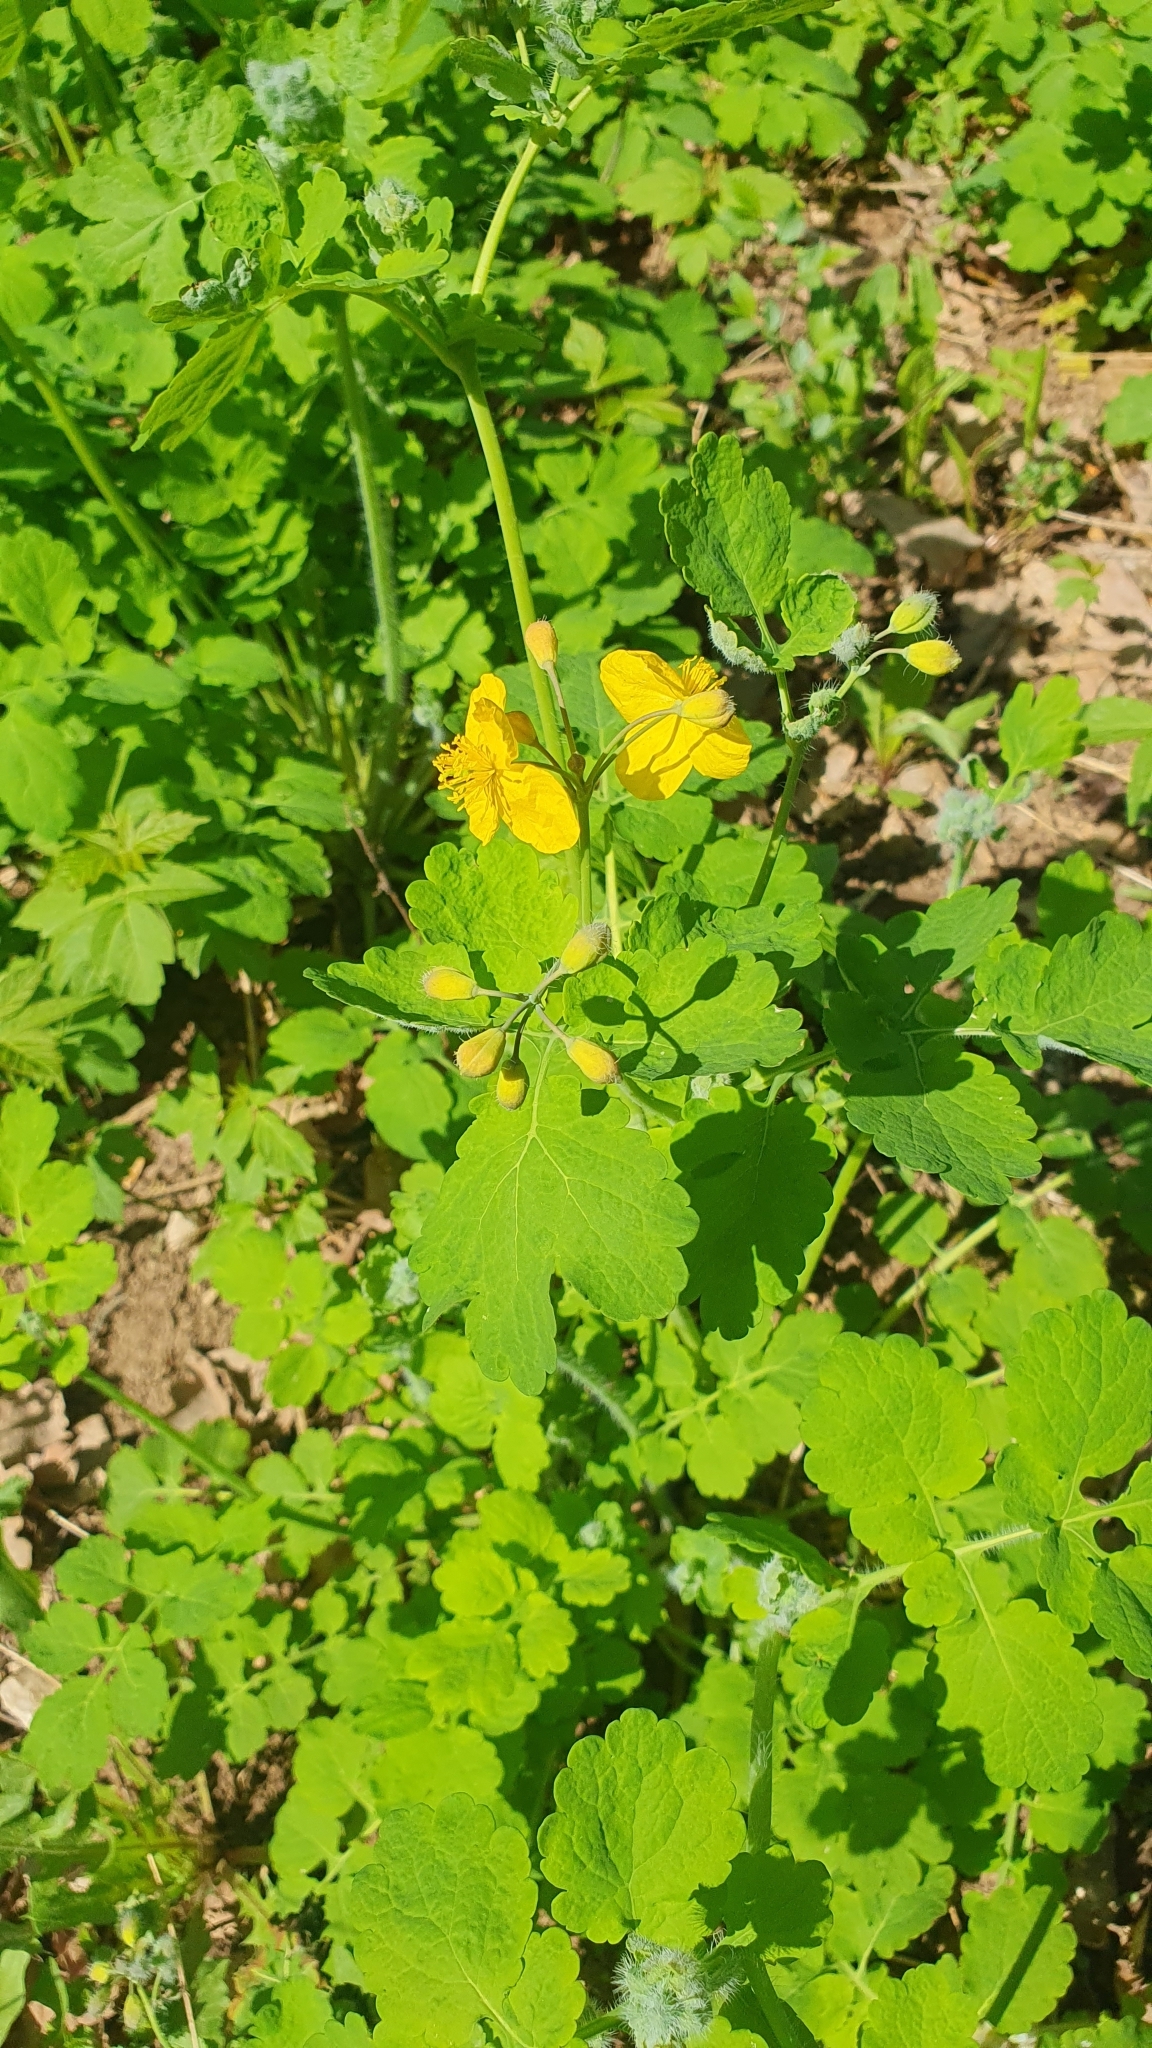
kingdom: Plantae
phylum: Tracheophyta
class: Magnoliopsida
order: Ranunculales
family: Papaveraceae
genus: Chelidonium
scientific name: Chelidonium majus
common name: Greater celandine
